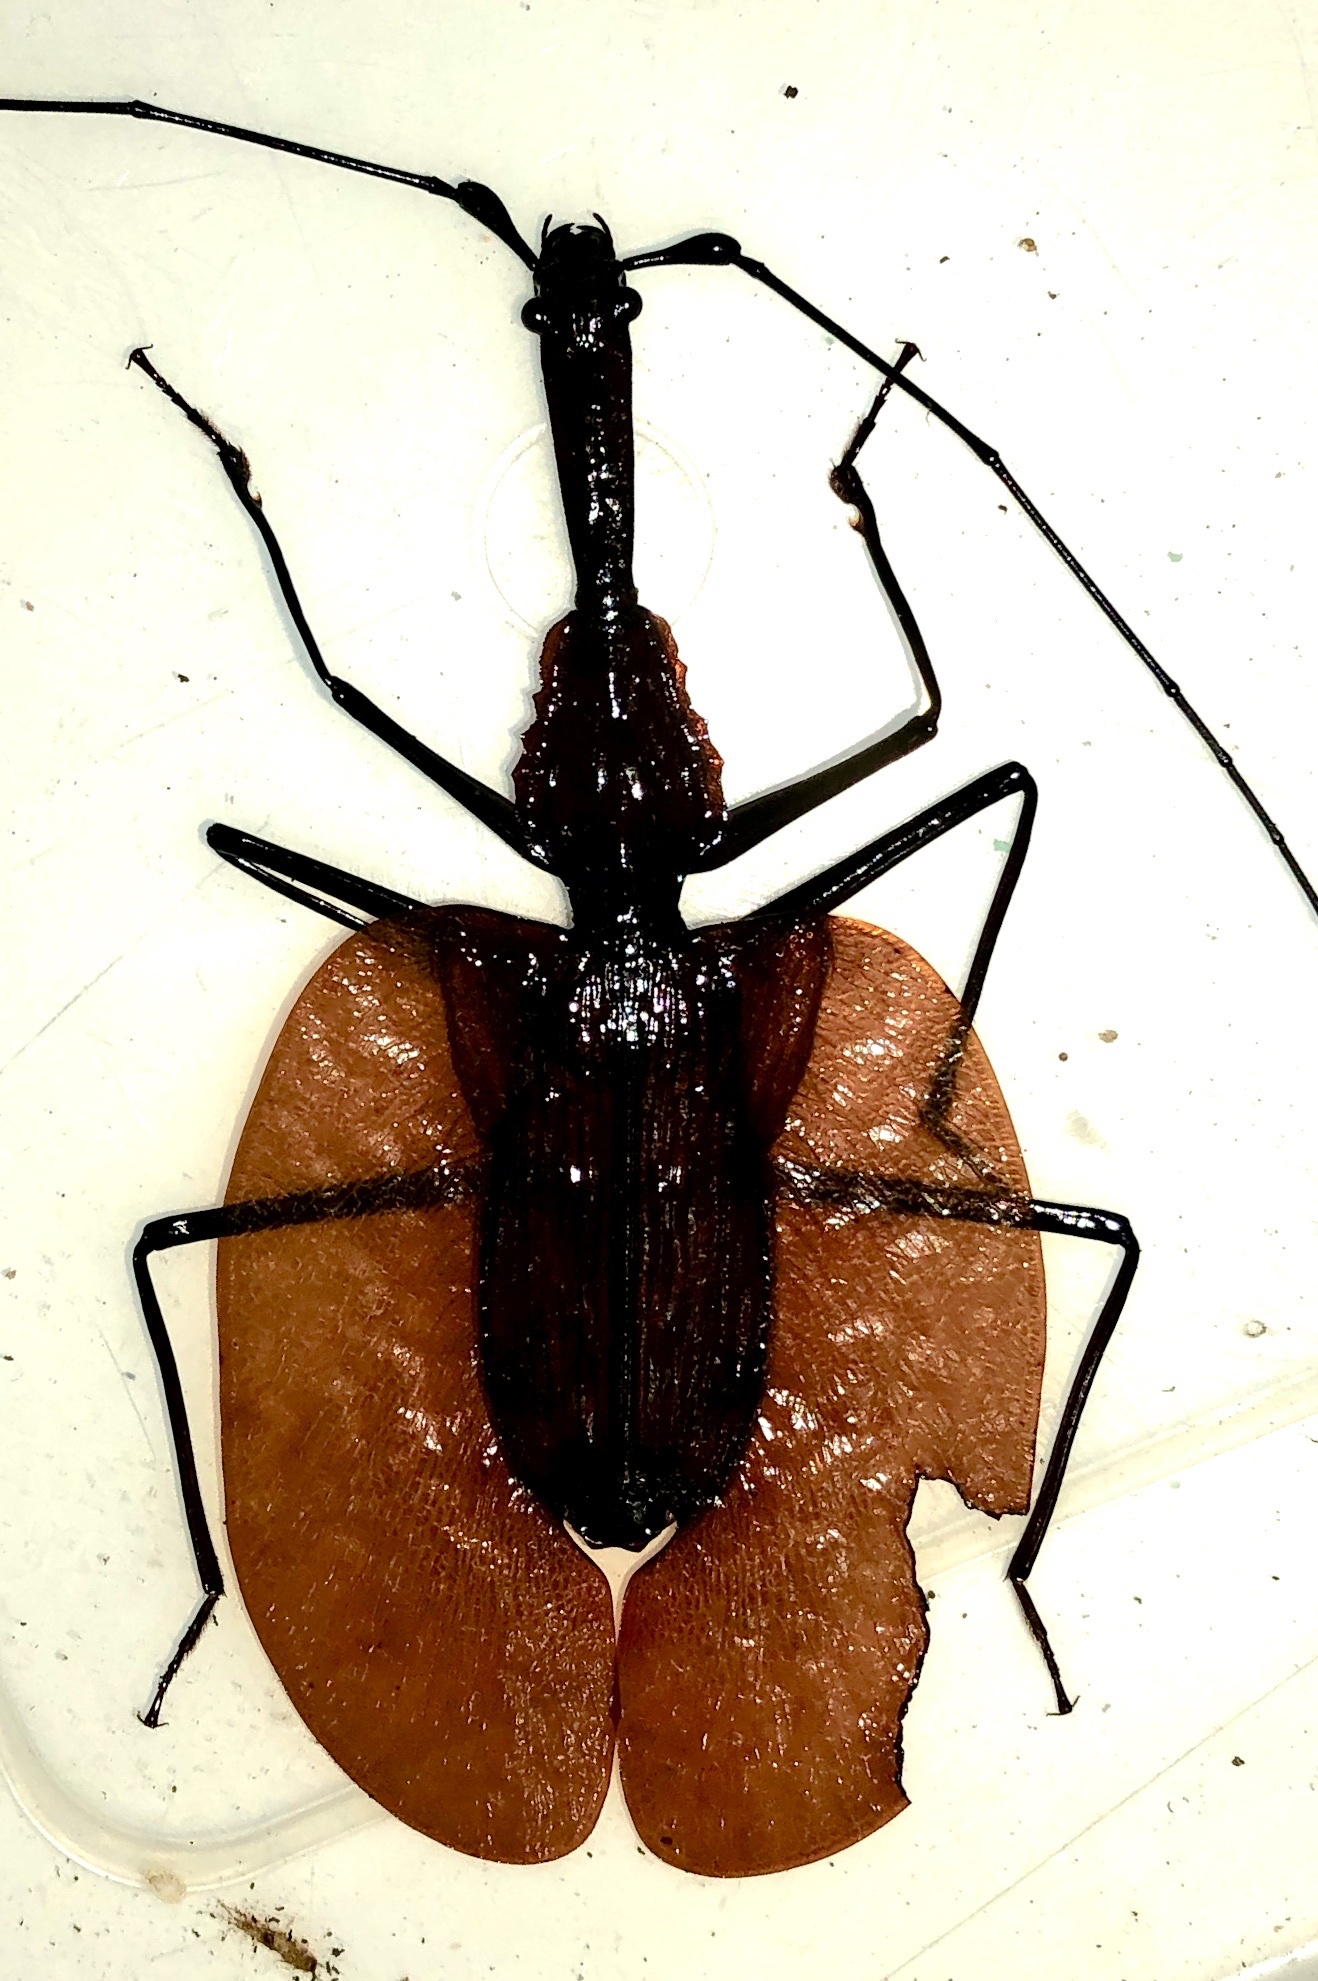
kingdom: Animalia
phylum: Arthropoda
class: Insecta
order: Coleoptera
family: Carabidae
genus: Mormolyce
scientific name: Mormolyce phyllodes
